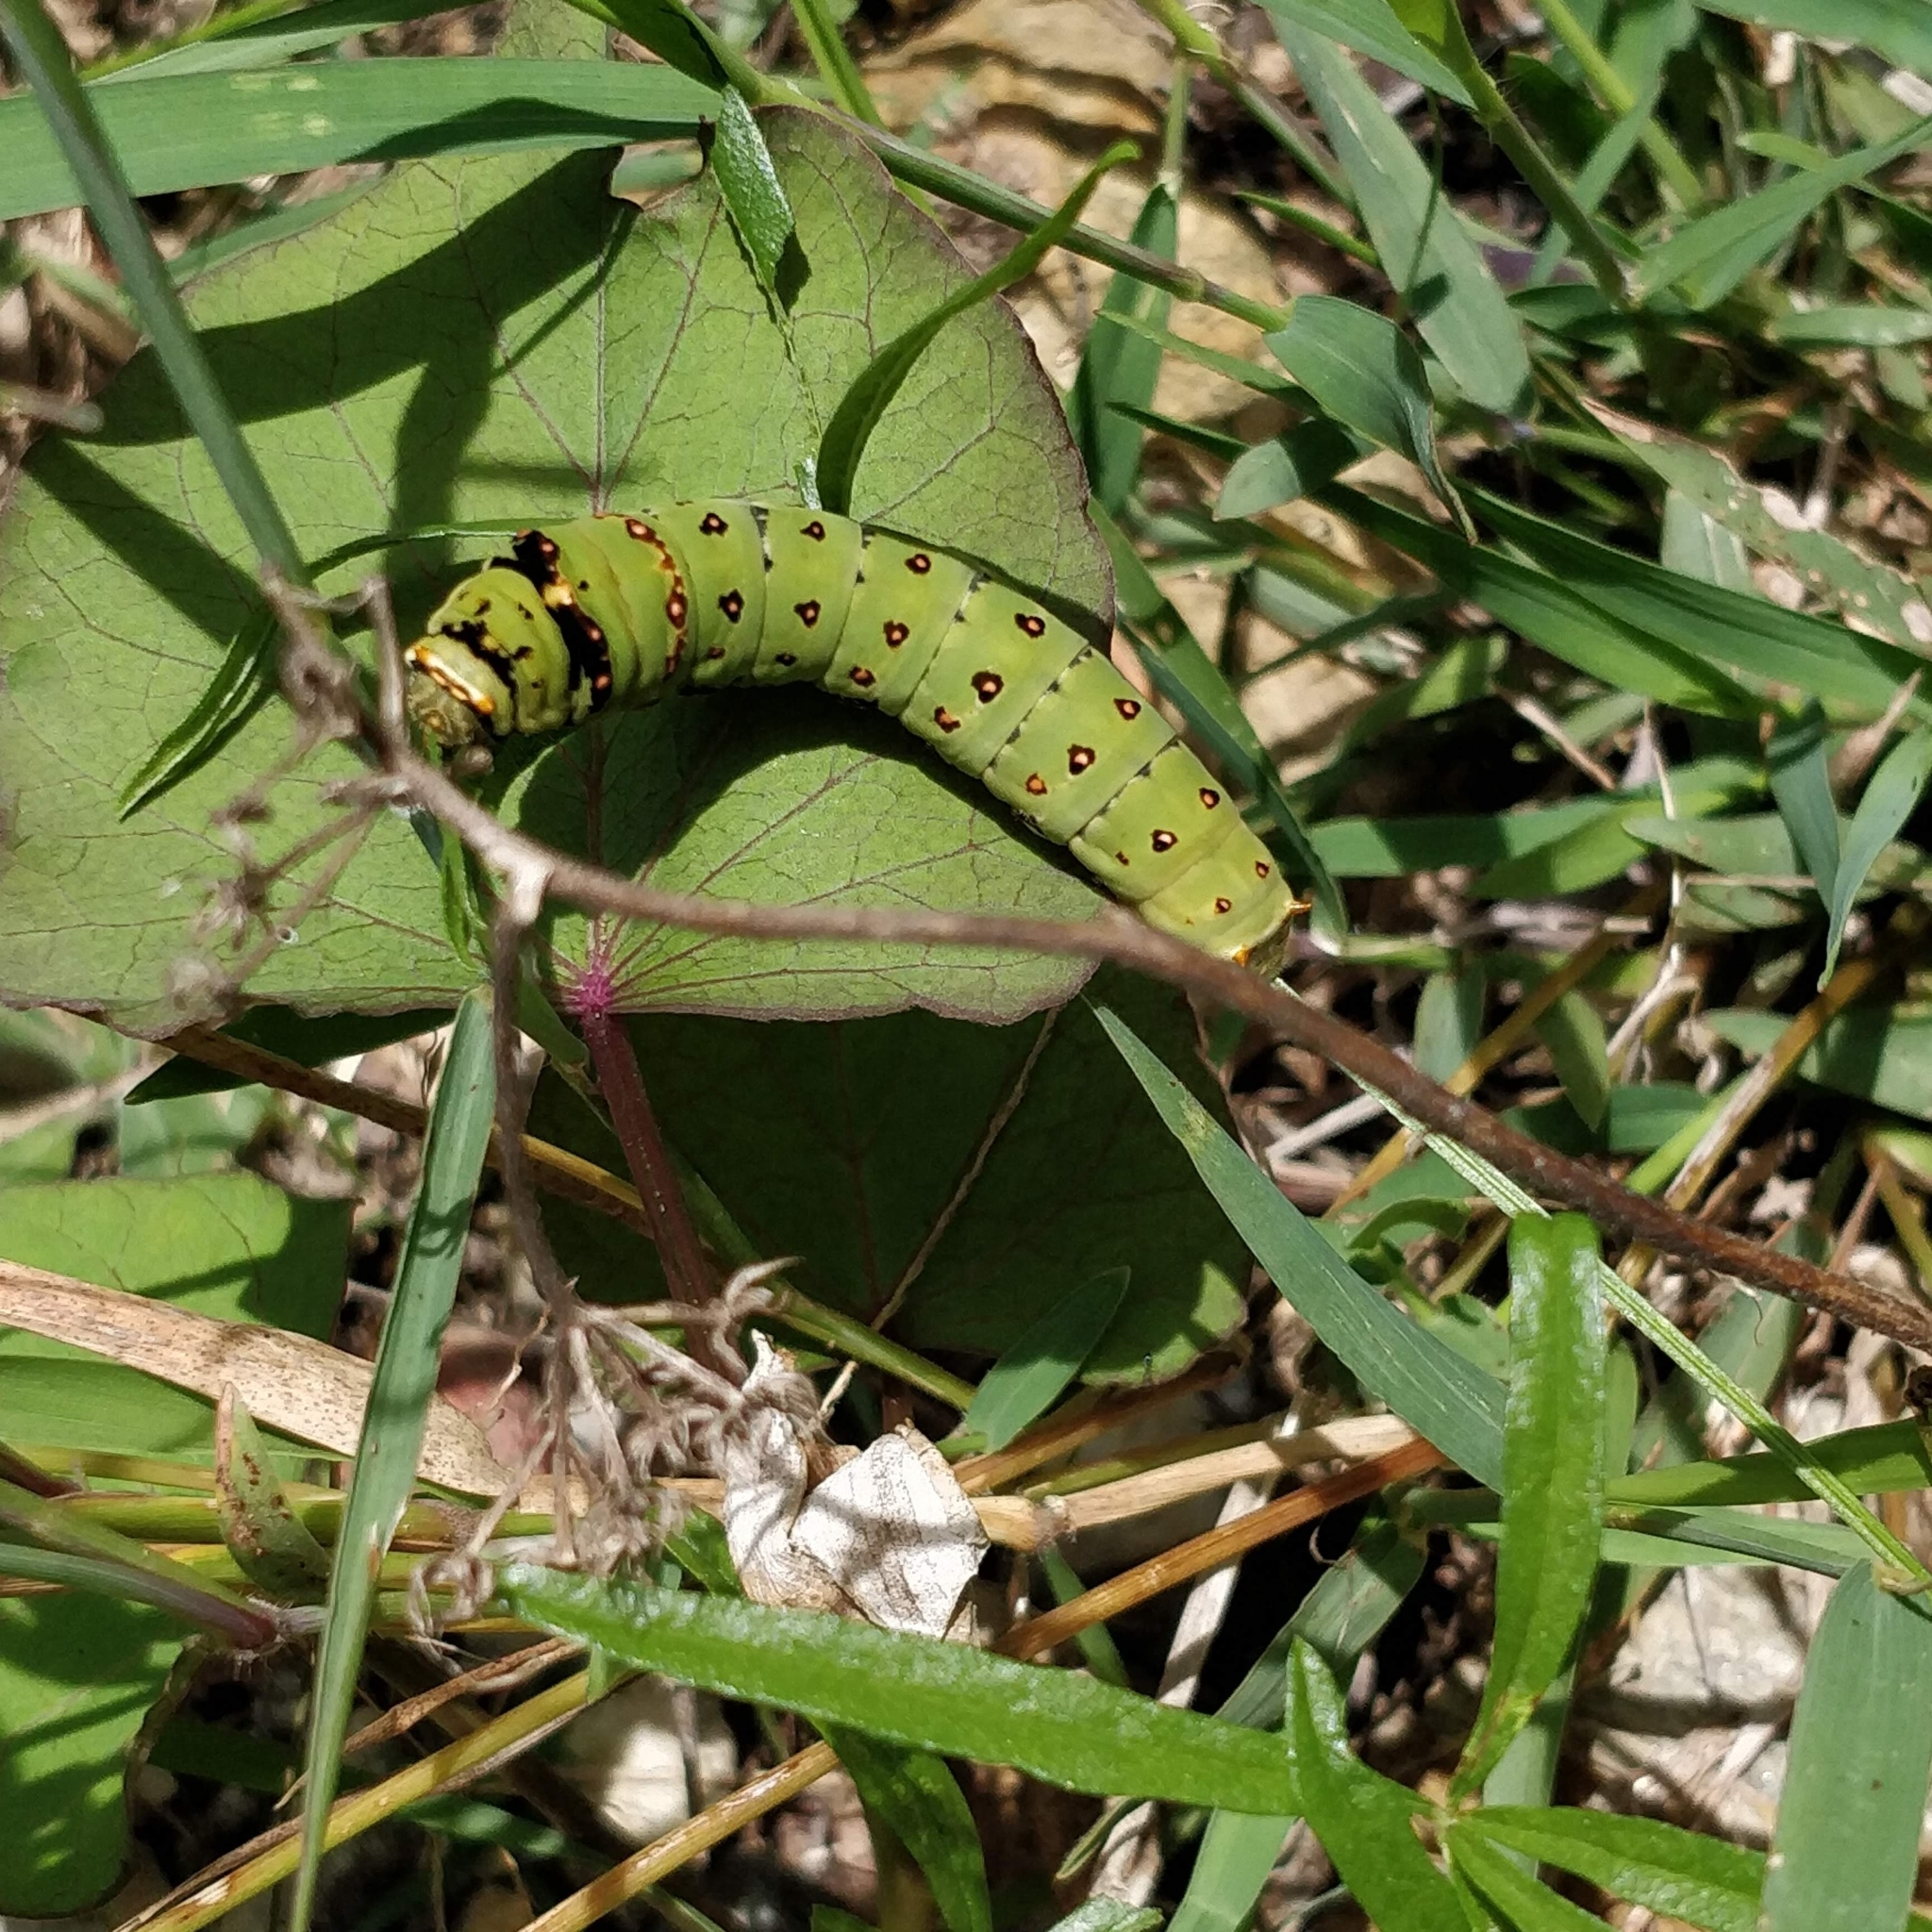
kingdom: Animalia
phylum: Arthropoda
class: Insecta
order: Lepidoptera
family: Papilionidae
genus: Papilio
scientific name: Papilio demoleus
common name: Lime butterfly
